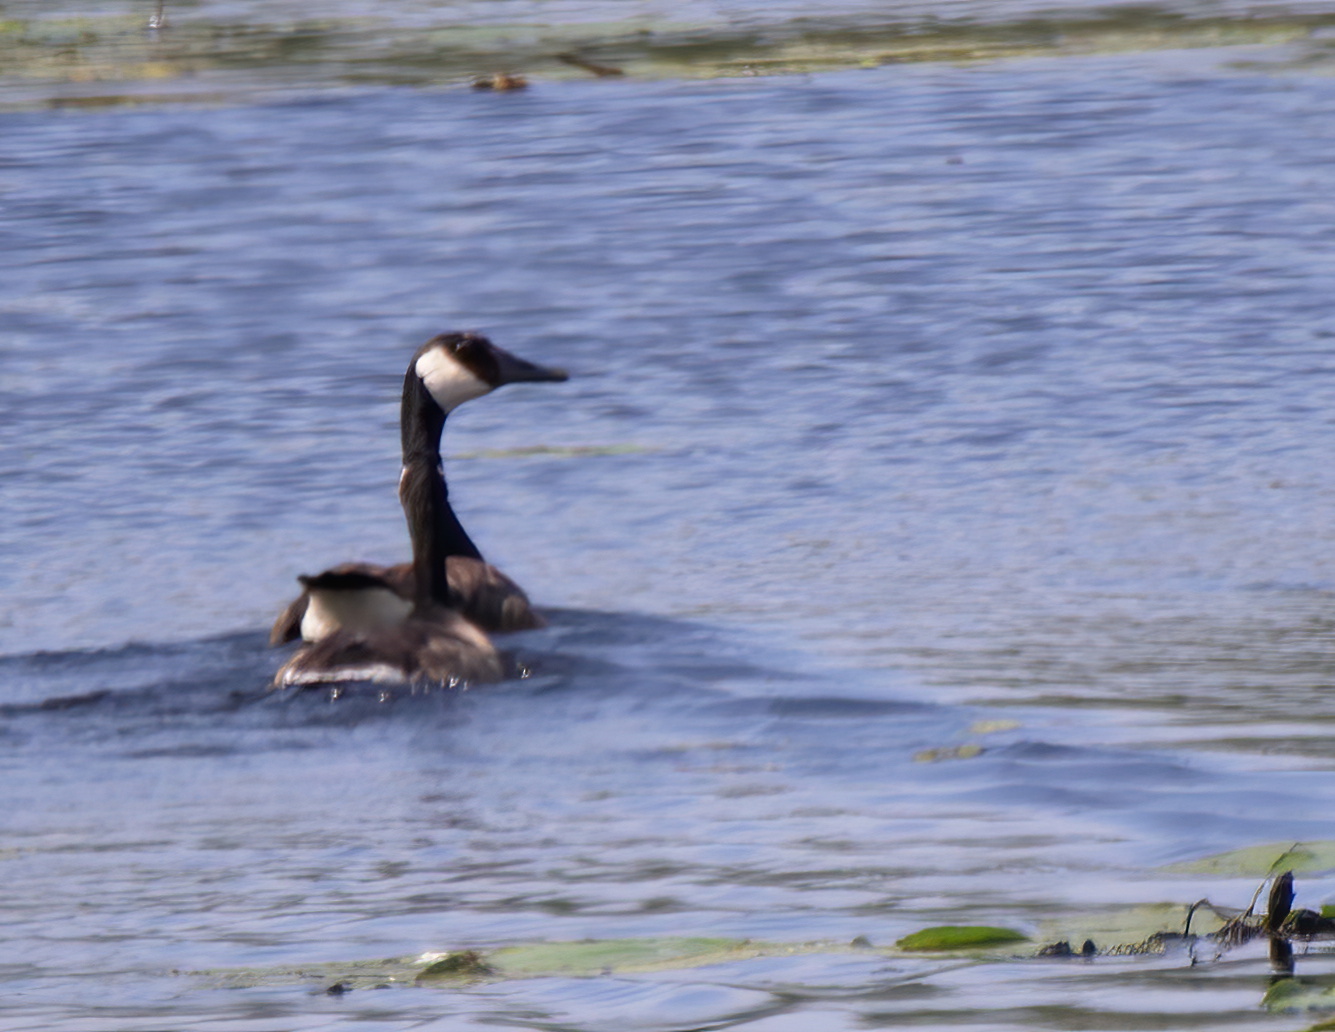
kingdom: Animalia
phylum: Chordata
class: Aves
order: Anseriformes
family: Anatidae
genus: Branta
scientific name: Branta canadensis
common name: Canada goose
